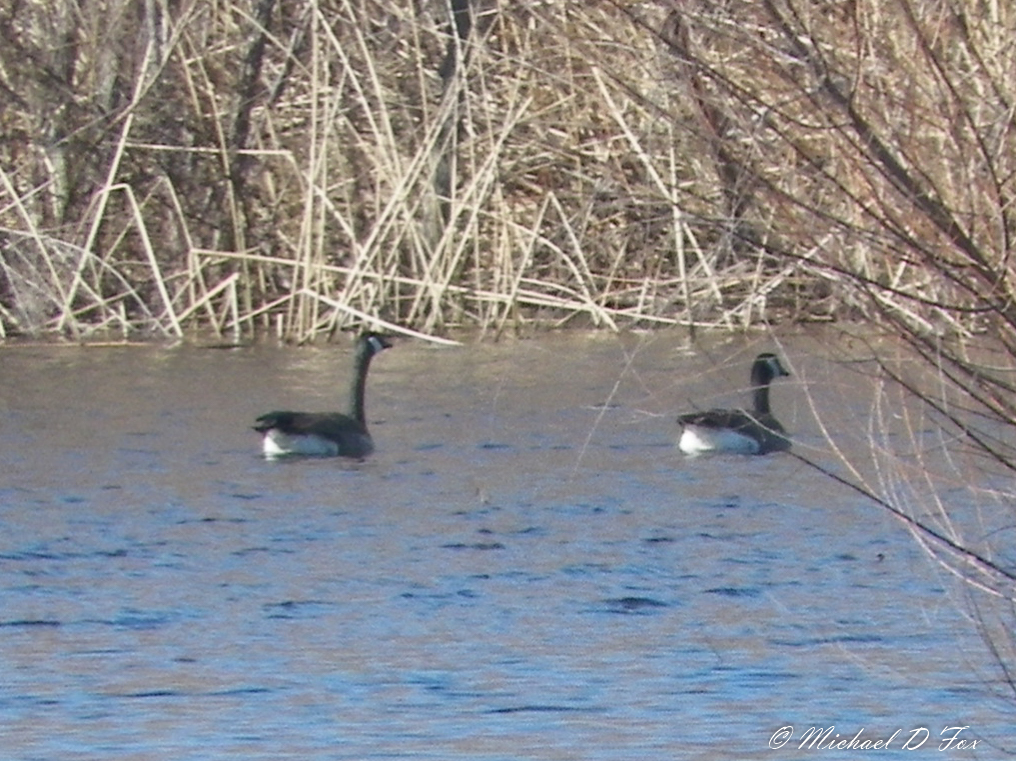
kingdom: Animalia
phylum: Chordata
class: Aves
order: Anseriformes
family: Anatidae
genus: Branta
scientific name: Branta canadensis
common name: Canada goose
